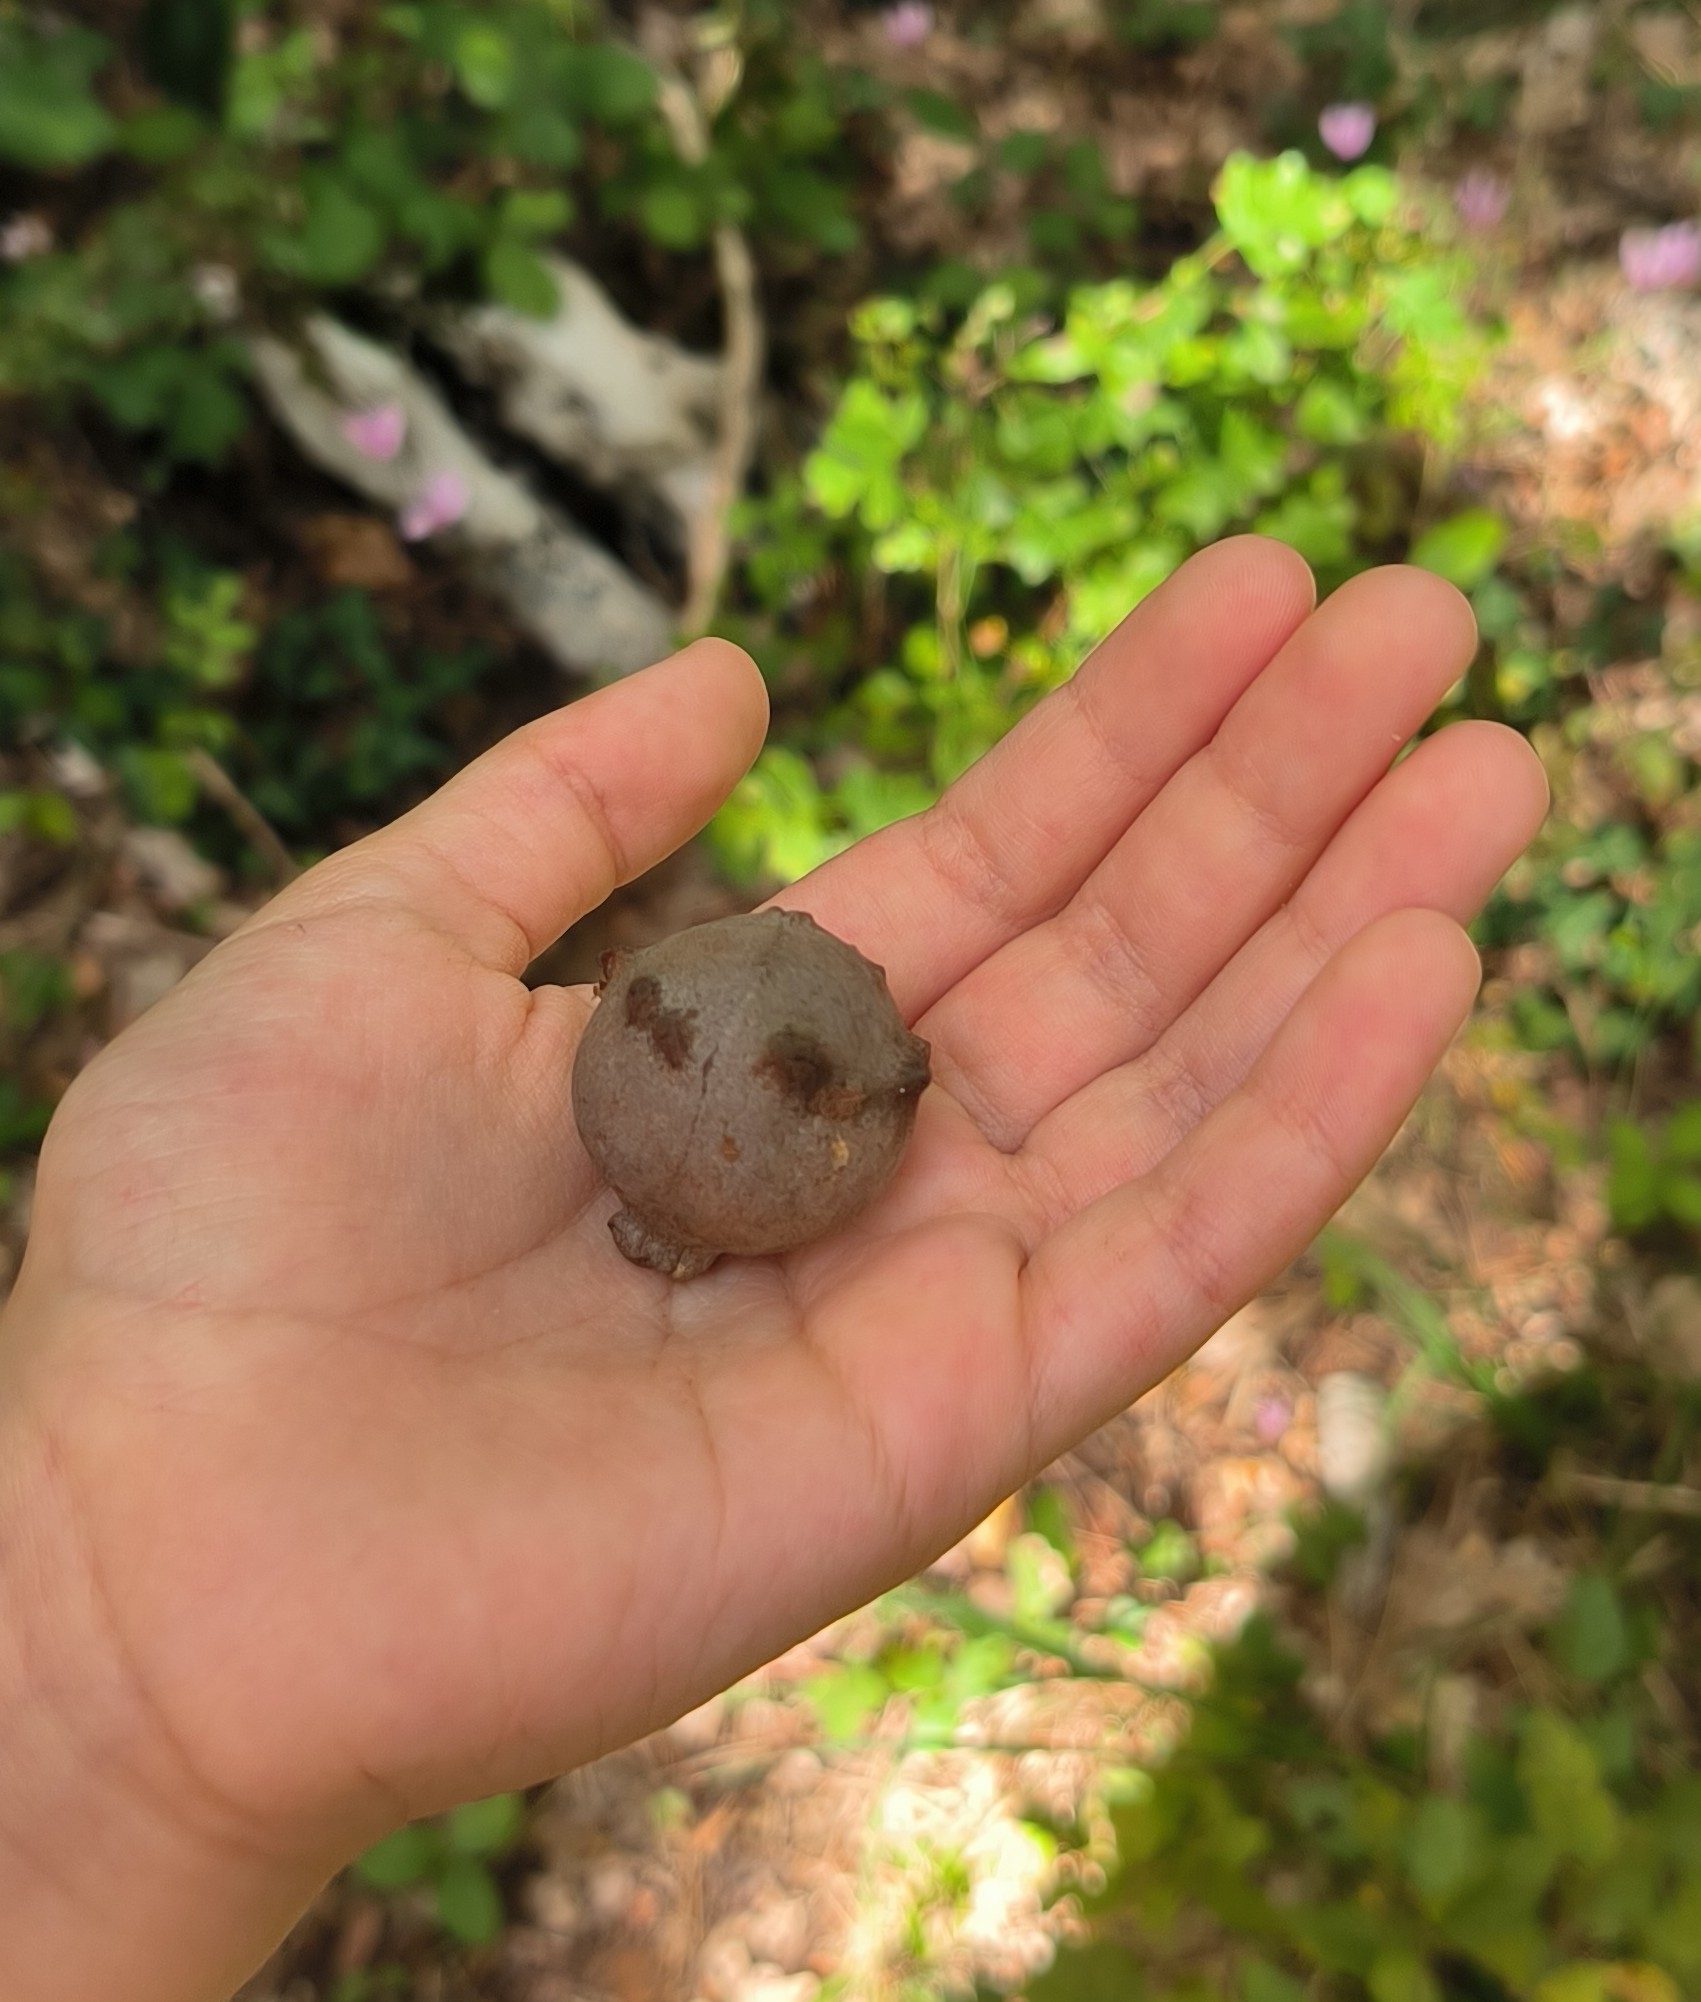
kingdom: Animalia
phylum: Arthropoda
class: Insecta
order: Hymenoptera
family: Cynipidae
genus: Andricus
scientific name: Andricus quercustozae
